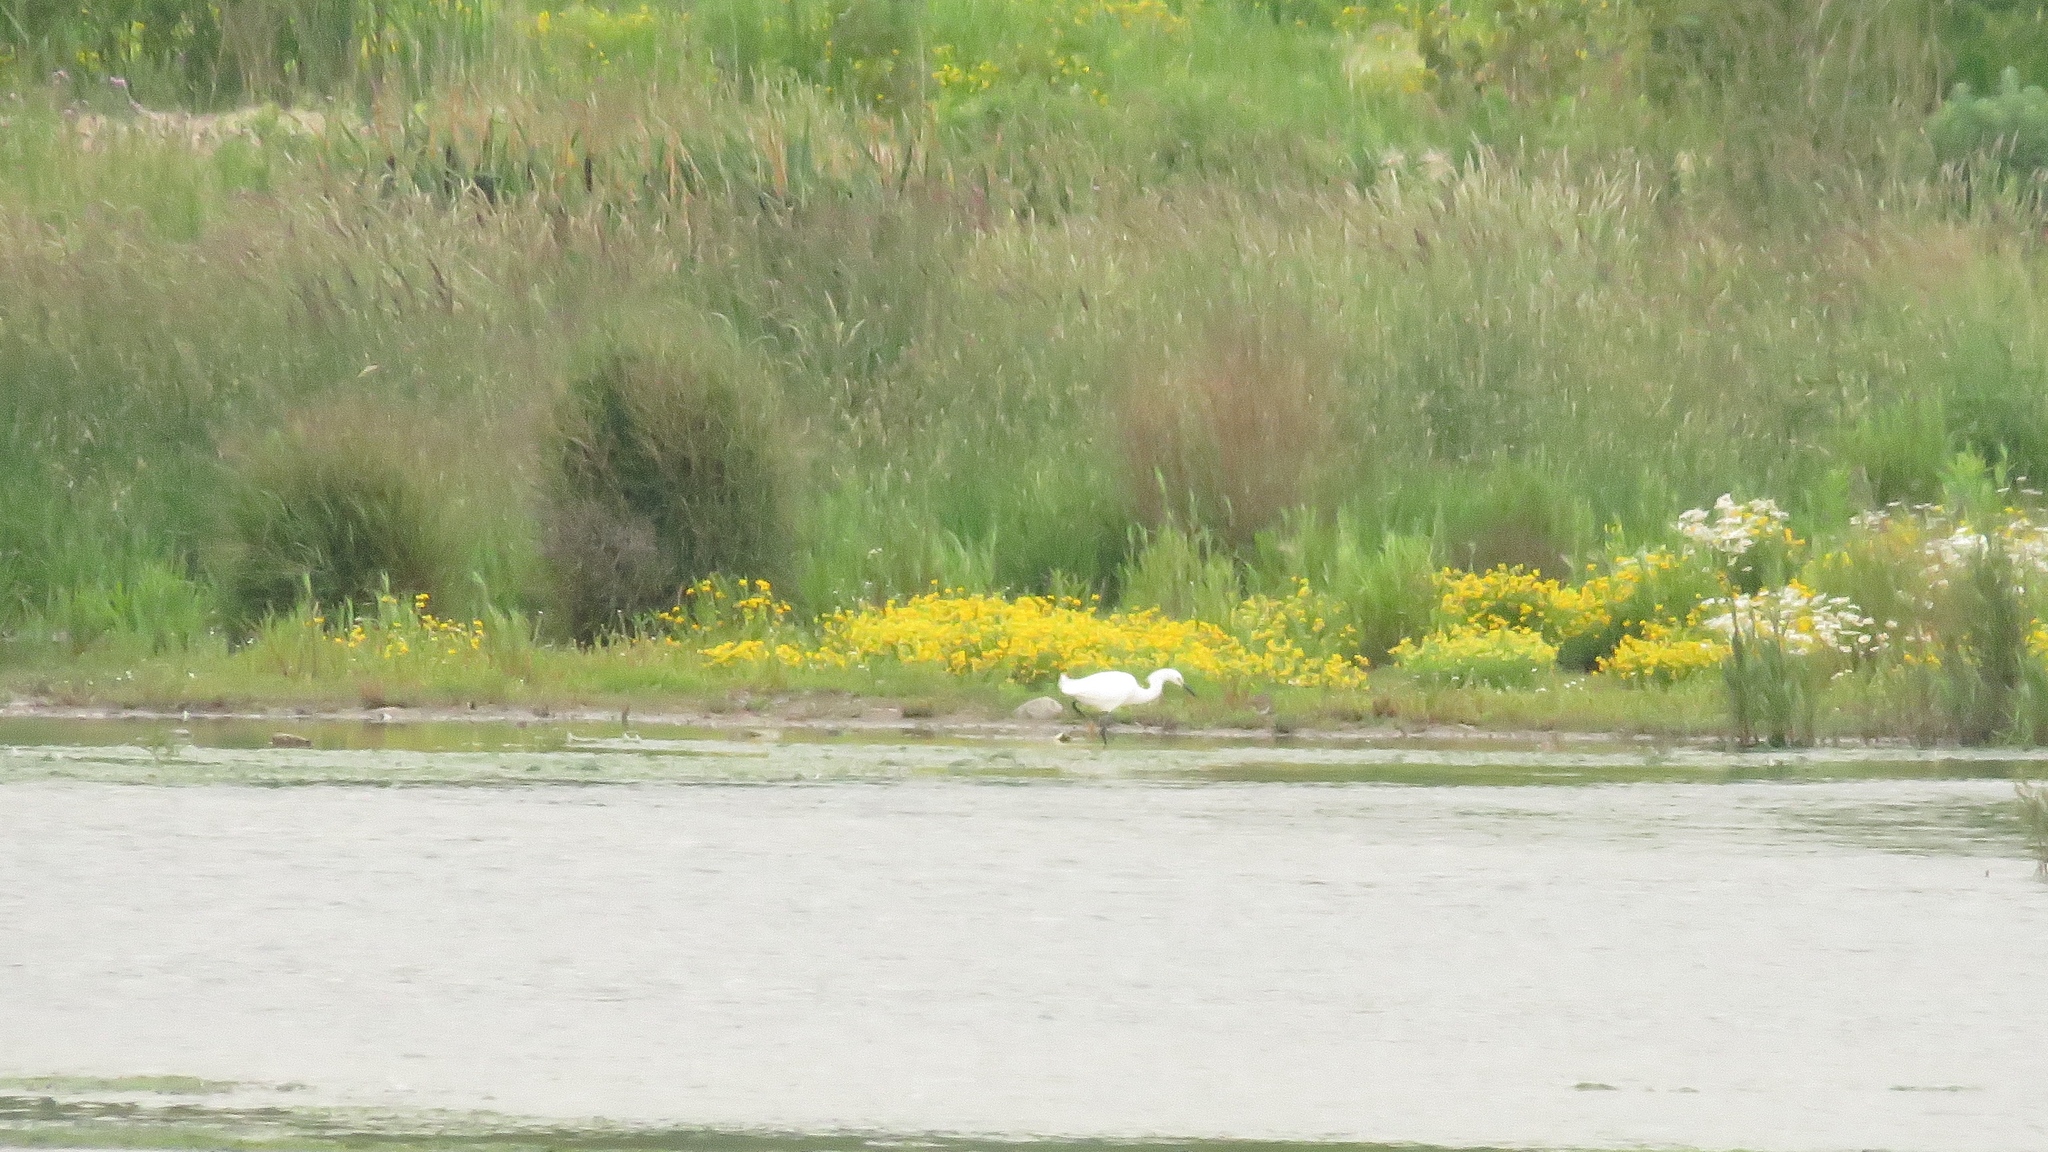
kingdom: Animalia
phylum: Chordata
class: Aves
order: Pelecaniformes
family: Ardeidae
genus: Egretta
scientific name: Egretta thula
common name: Snowy egret
